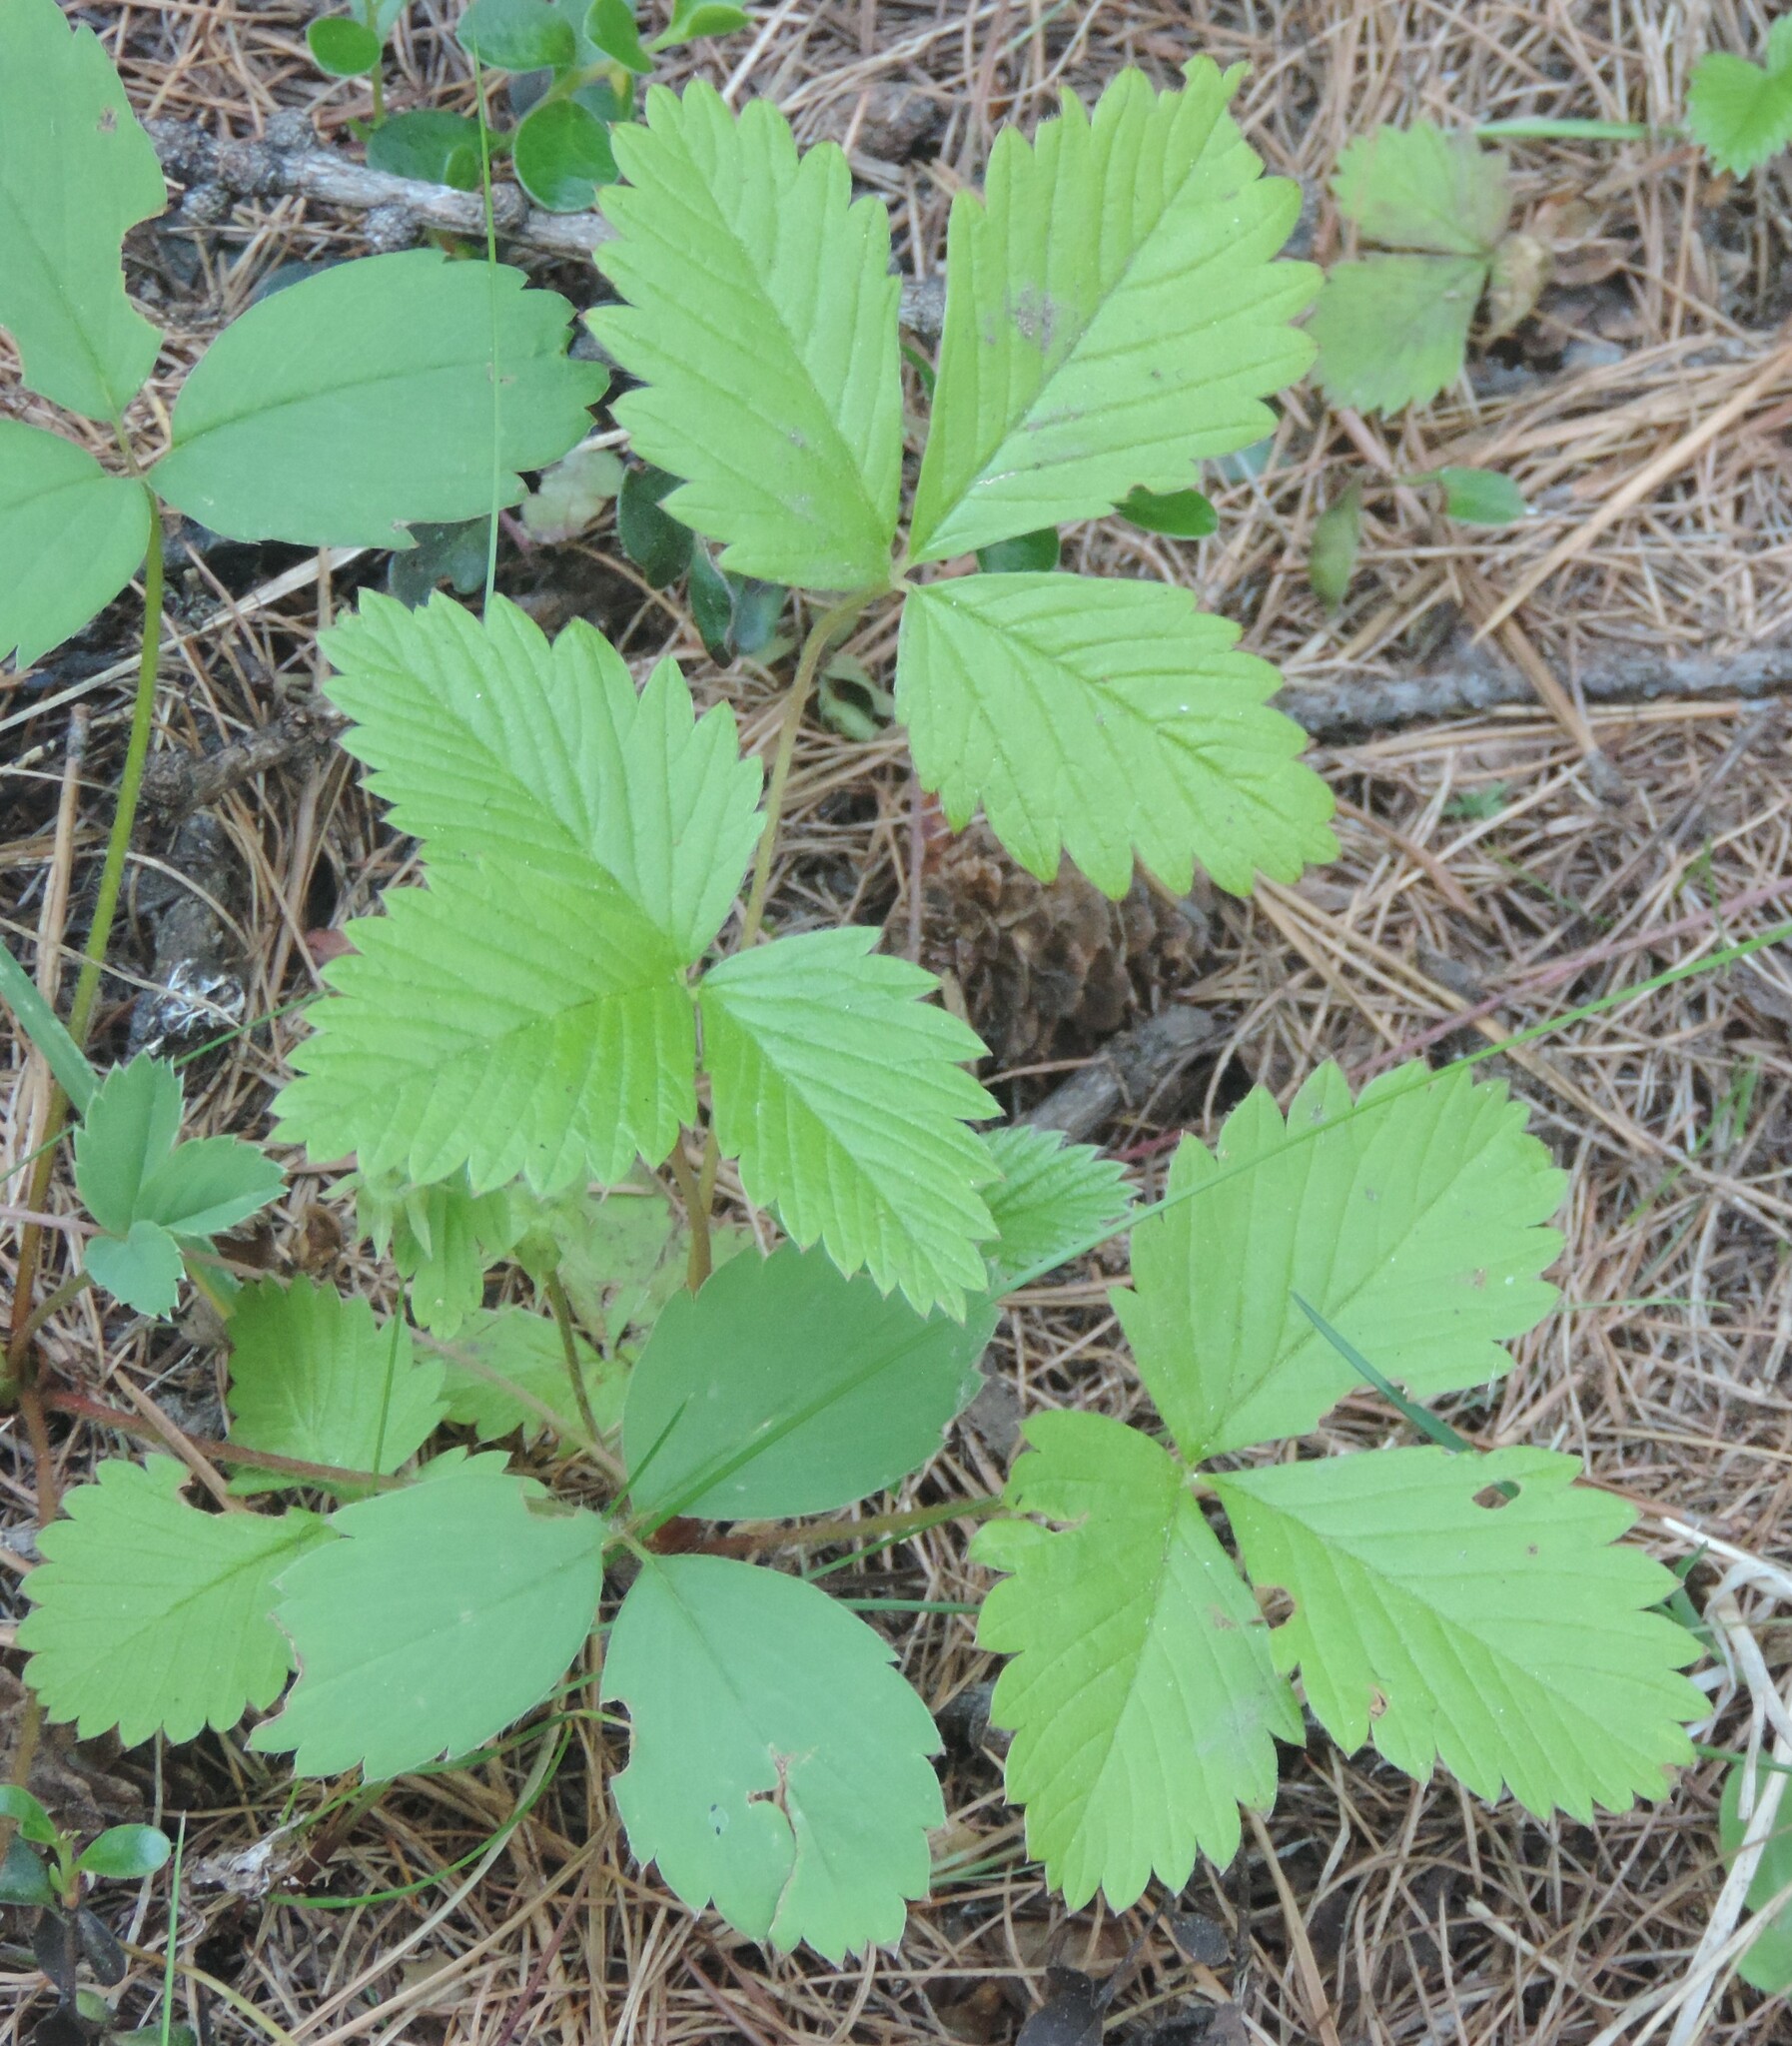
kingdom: Plantae
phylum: Tracheophyta
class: Magnoliopsida
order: Rosales
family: Rosaceae
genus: Fragaria
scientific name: Fragaria vesca
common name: Wild strawberry
